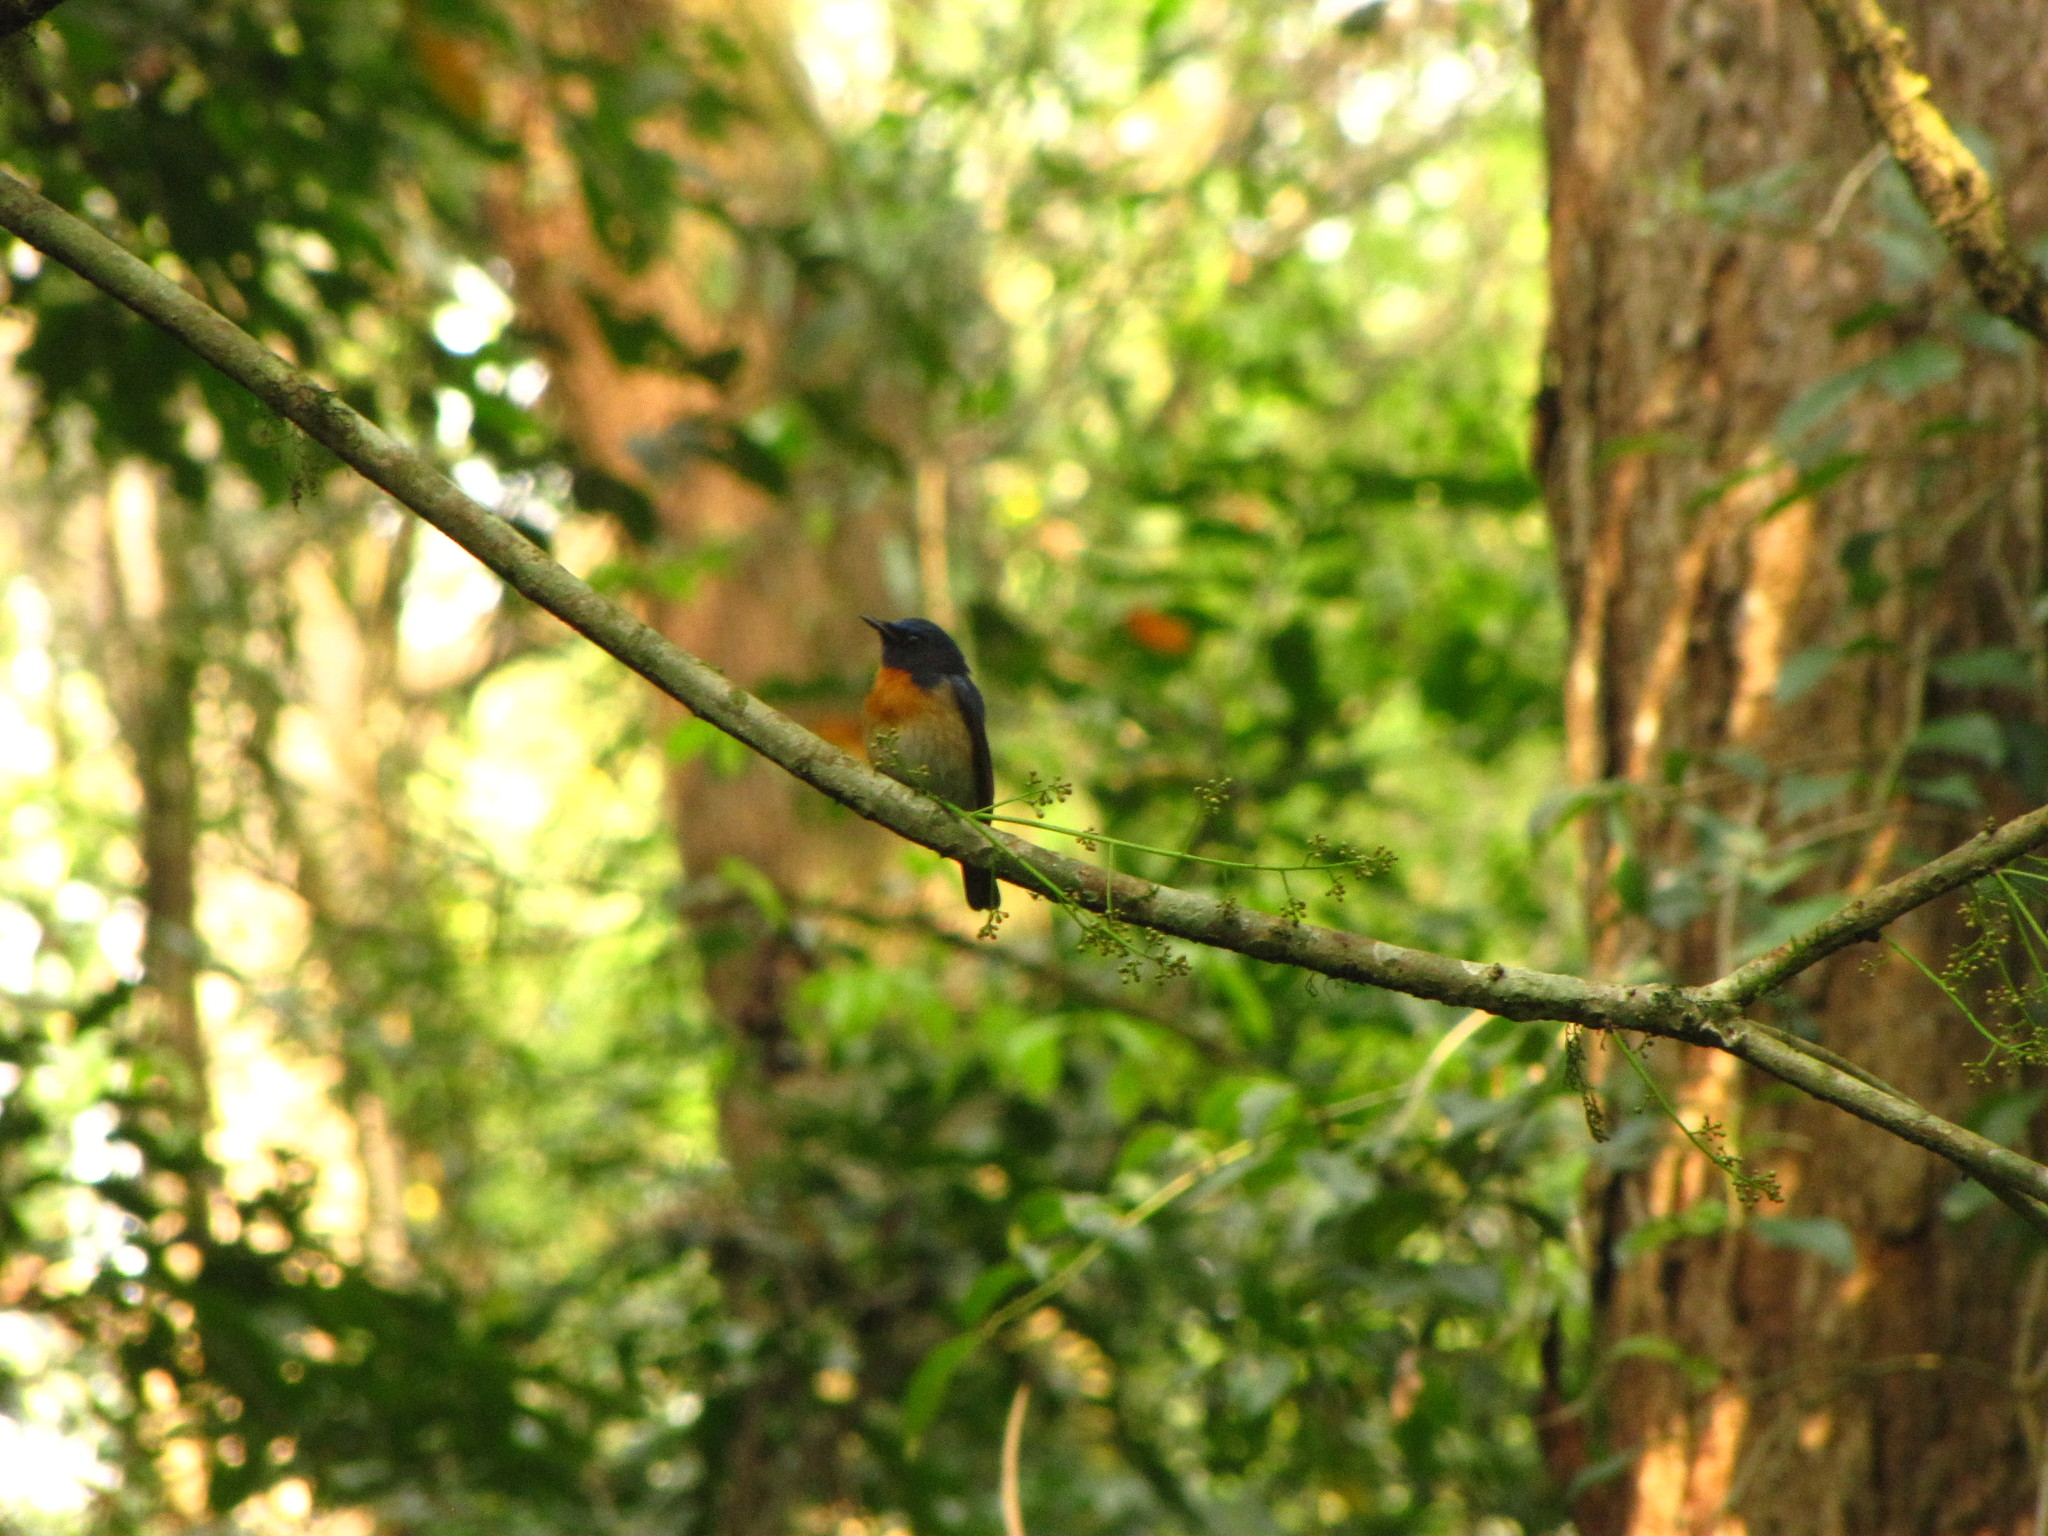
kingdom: Animalia
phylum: Chordata
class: Aves
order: Passeriformes
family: Muscicapidae
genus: Cyornis
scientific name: Cyornis rubeculoides
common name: Blue-throated blue flycatcher
